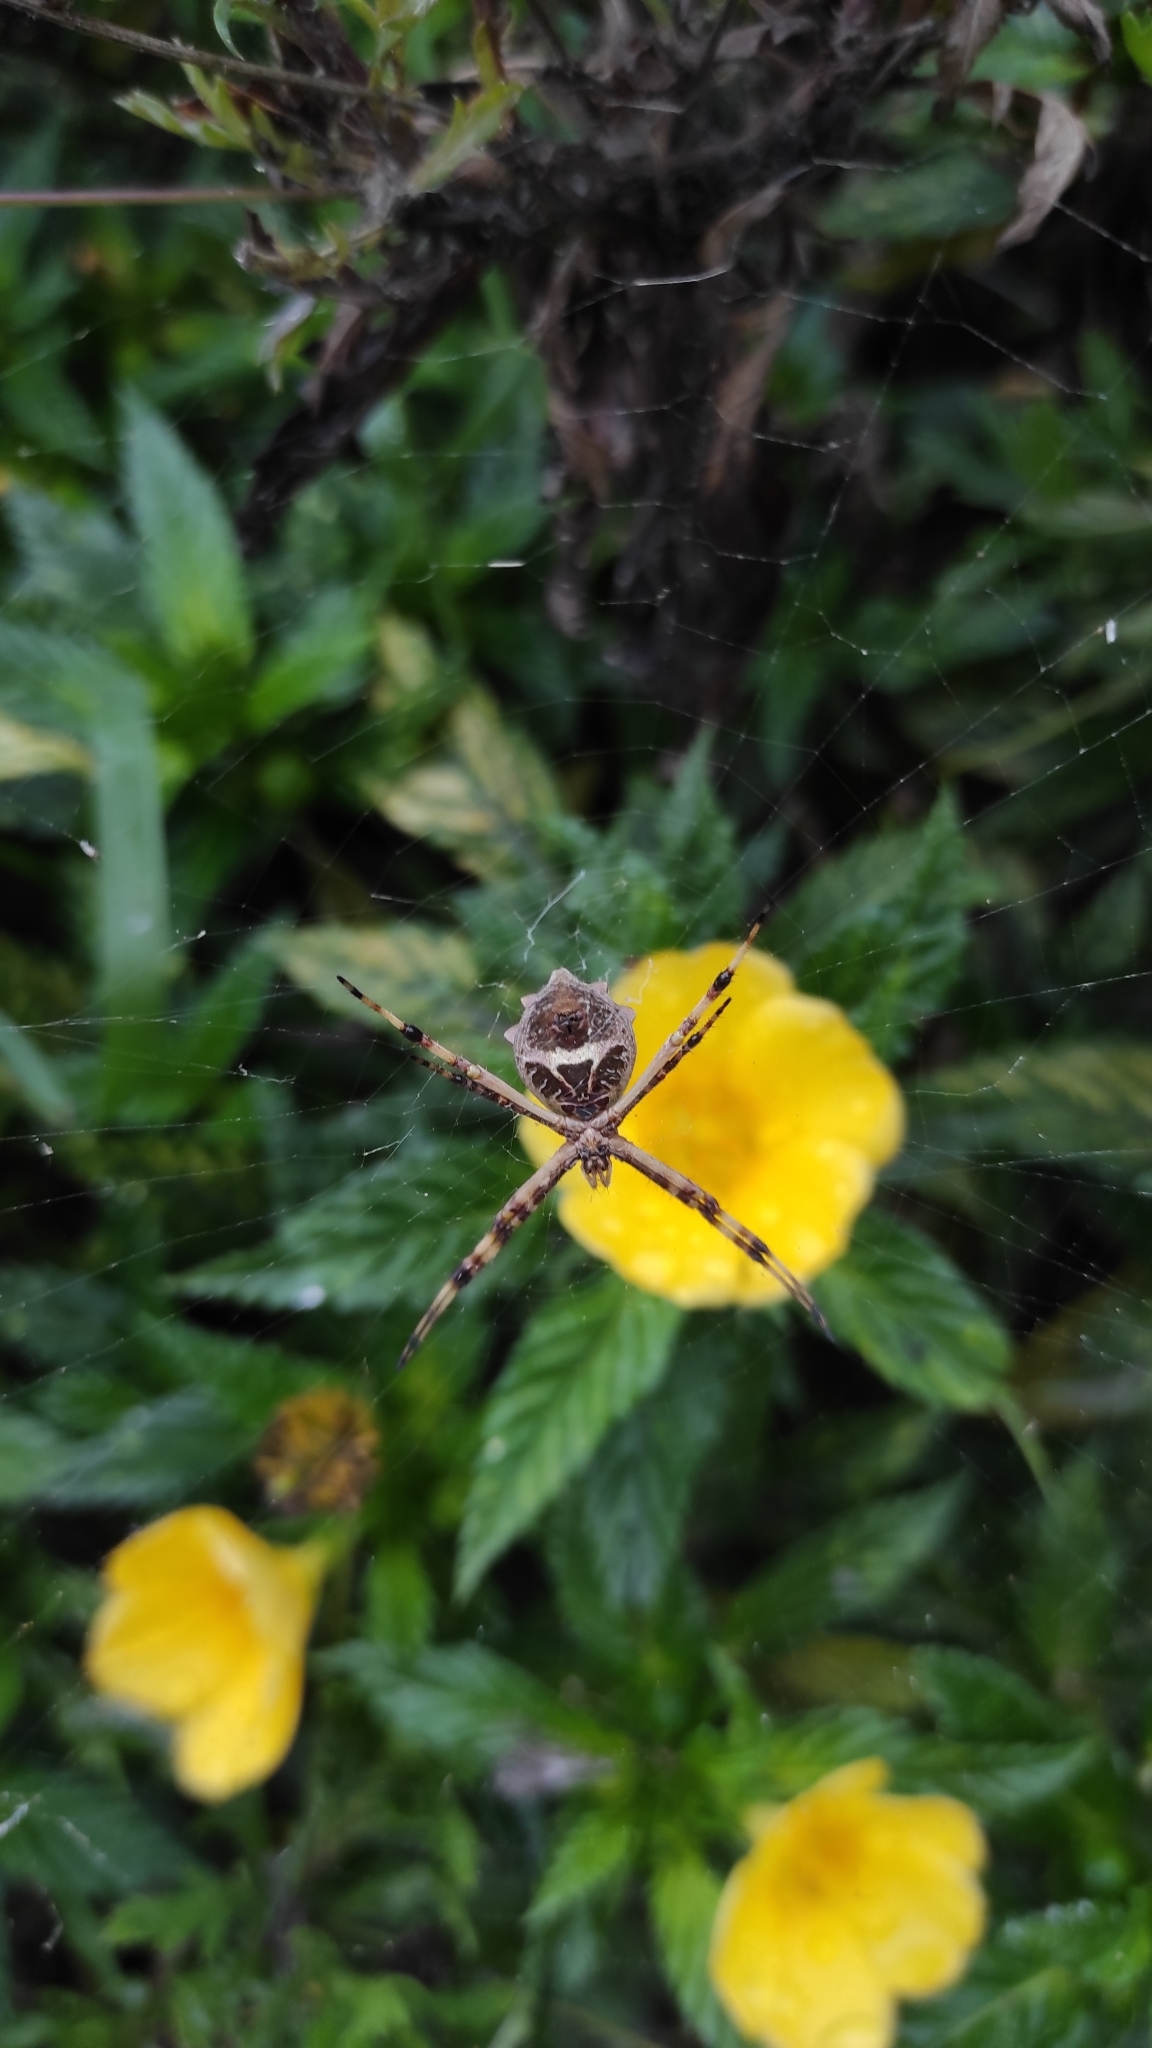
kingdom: Animalia
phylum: Arthropoda
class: Arachnida
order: Araneae
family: Araneidae
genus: Argiope
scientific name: Argiope argentata
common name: Orb weavers
